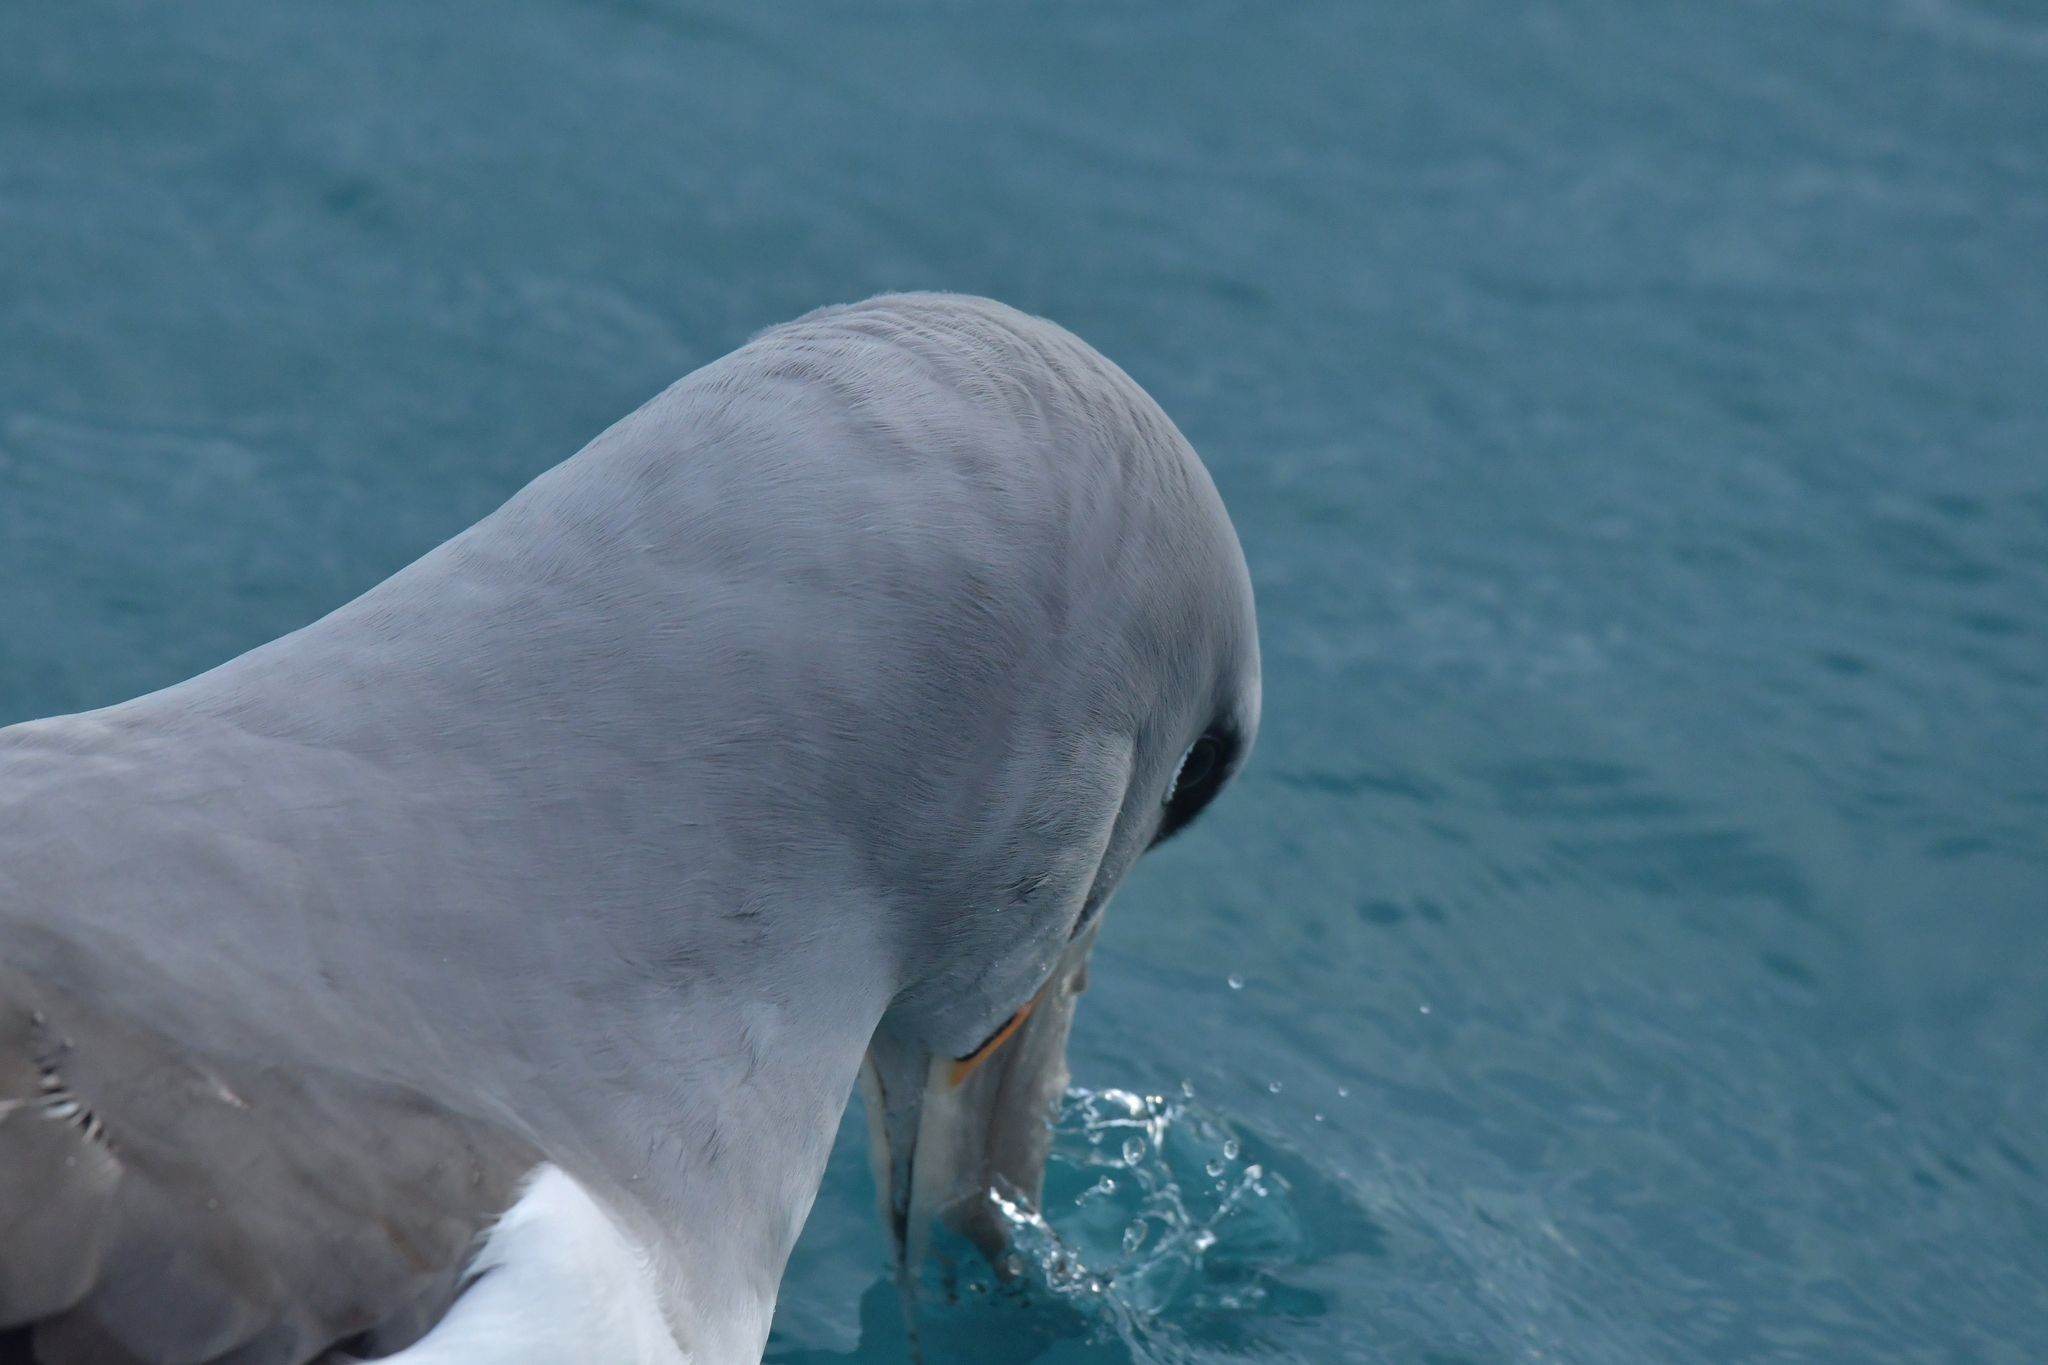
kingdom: Animalia
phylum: Chordata
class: Aves
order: Procellariiformes
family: Diomedeidae
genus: Thalassarche
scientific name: Thalassarche salvini
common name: Salvin's albatross
